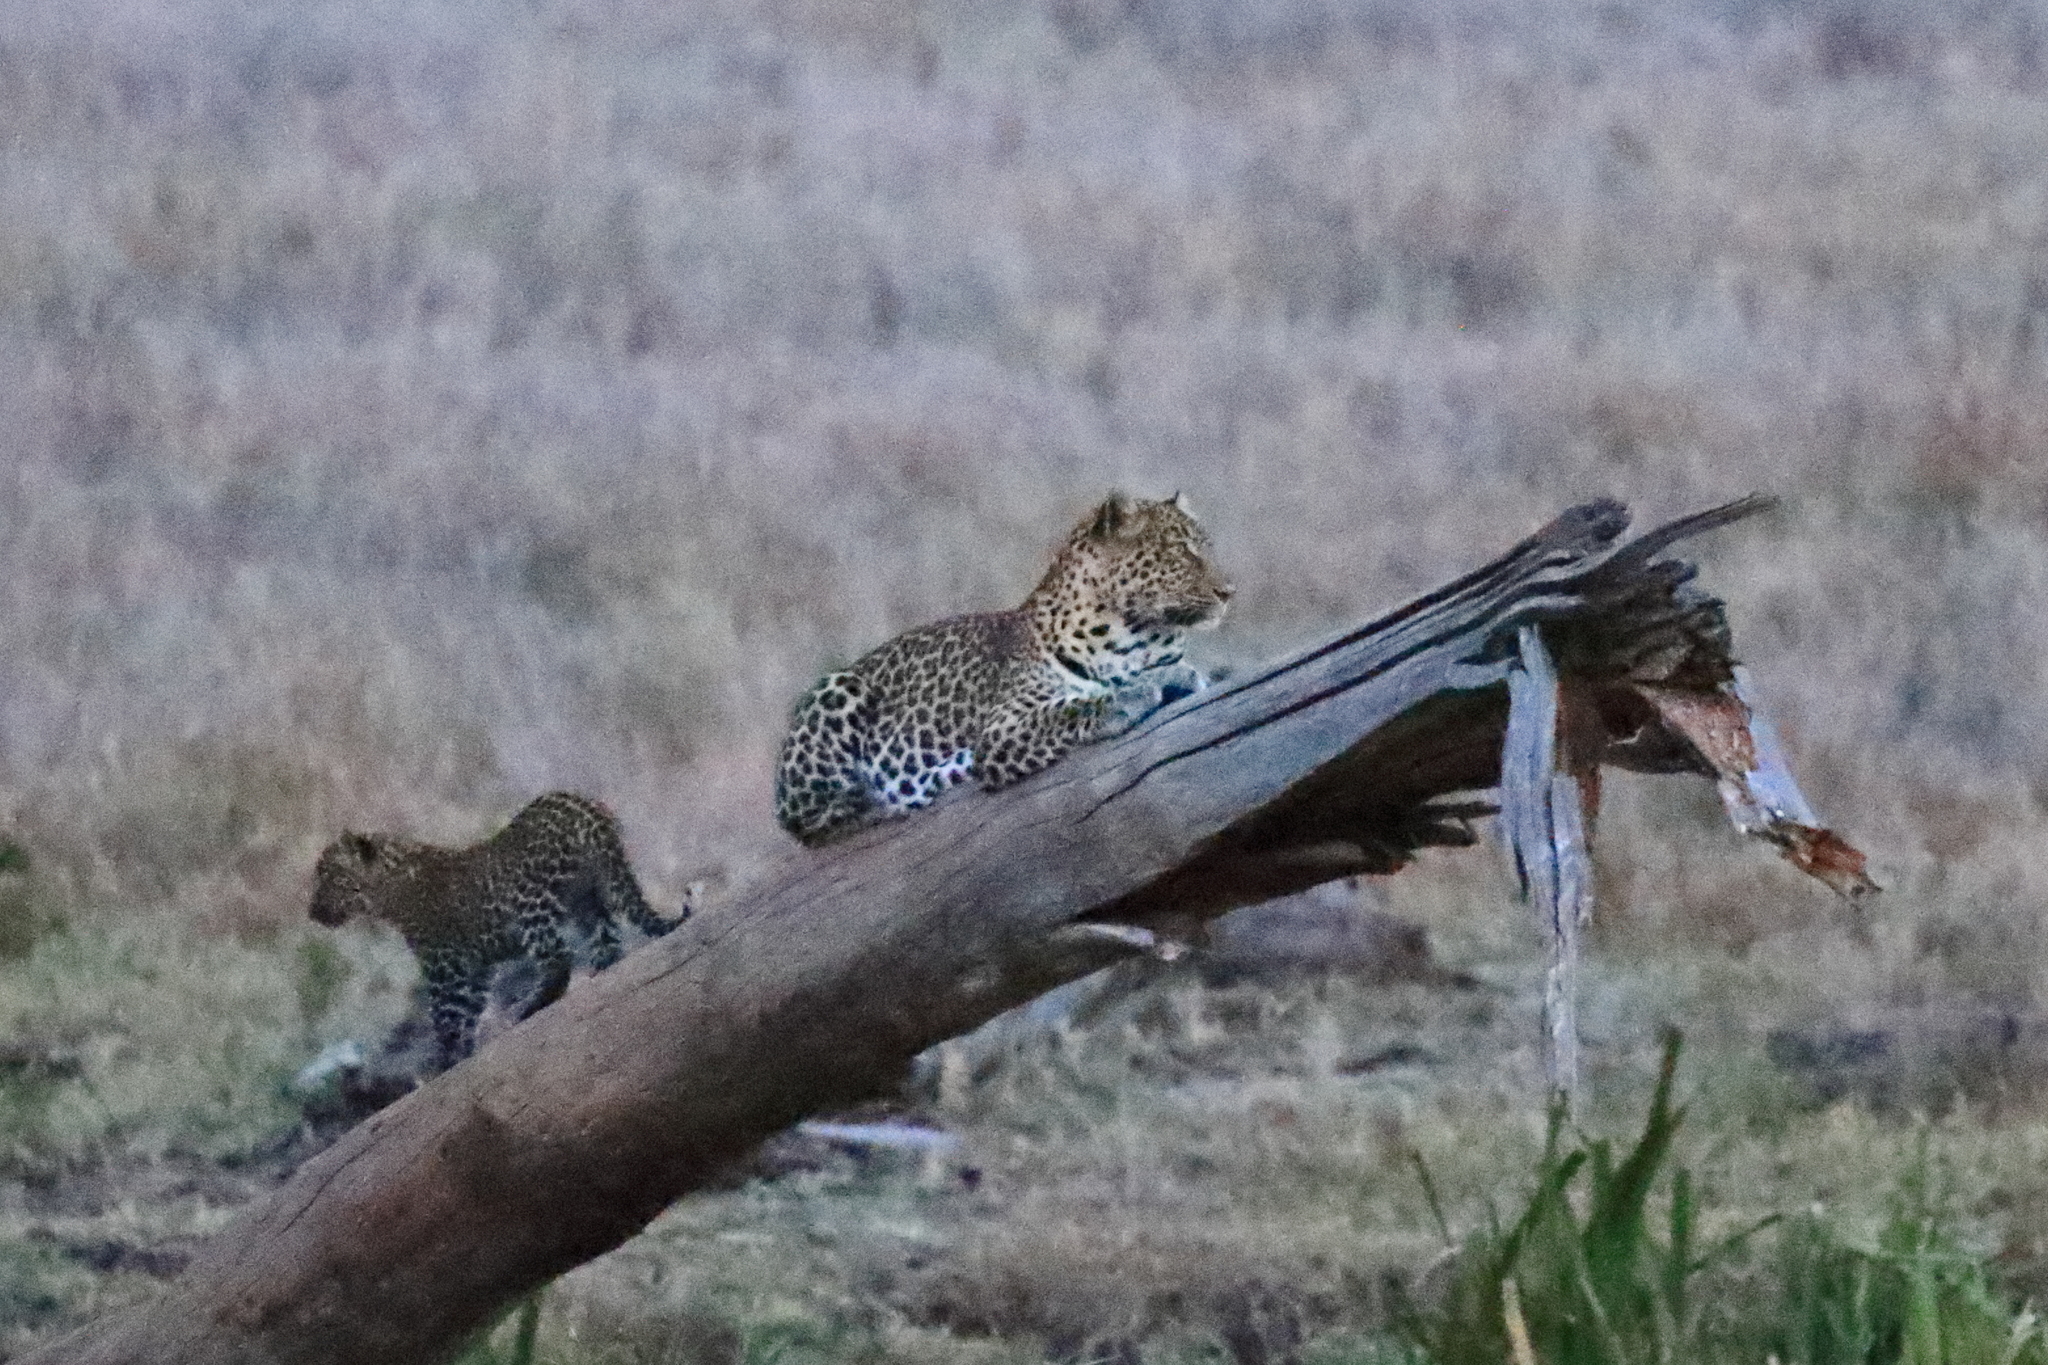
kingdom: Animalia
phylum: Chordata
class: Mammalia
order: Carnivora
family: Felidae
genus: Panthera
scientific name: Panthera pardus
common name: Leopard
